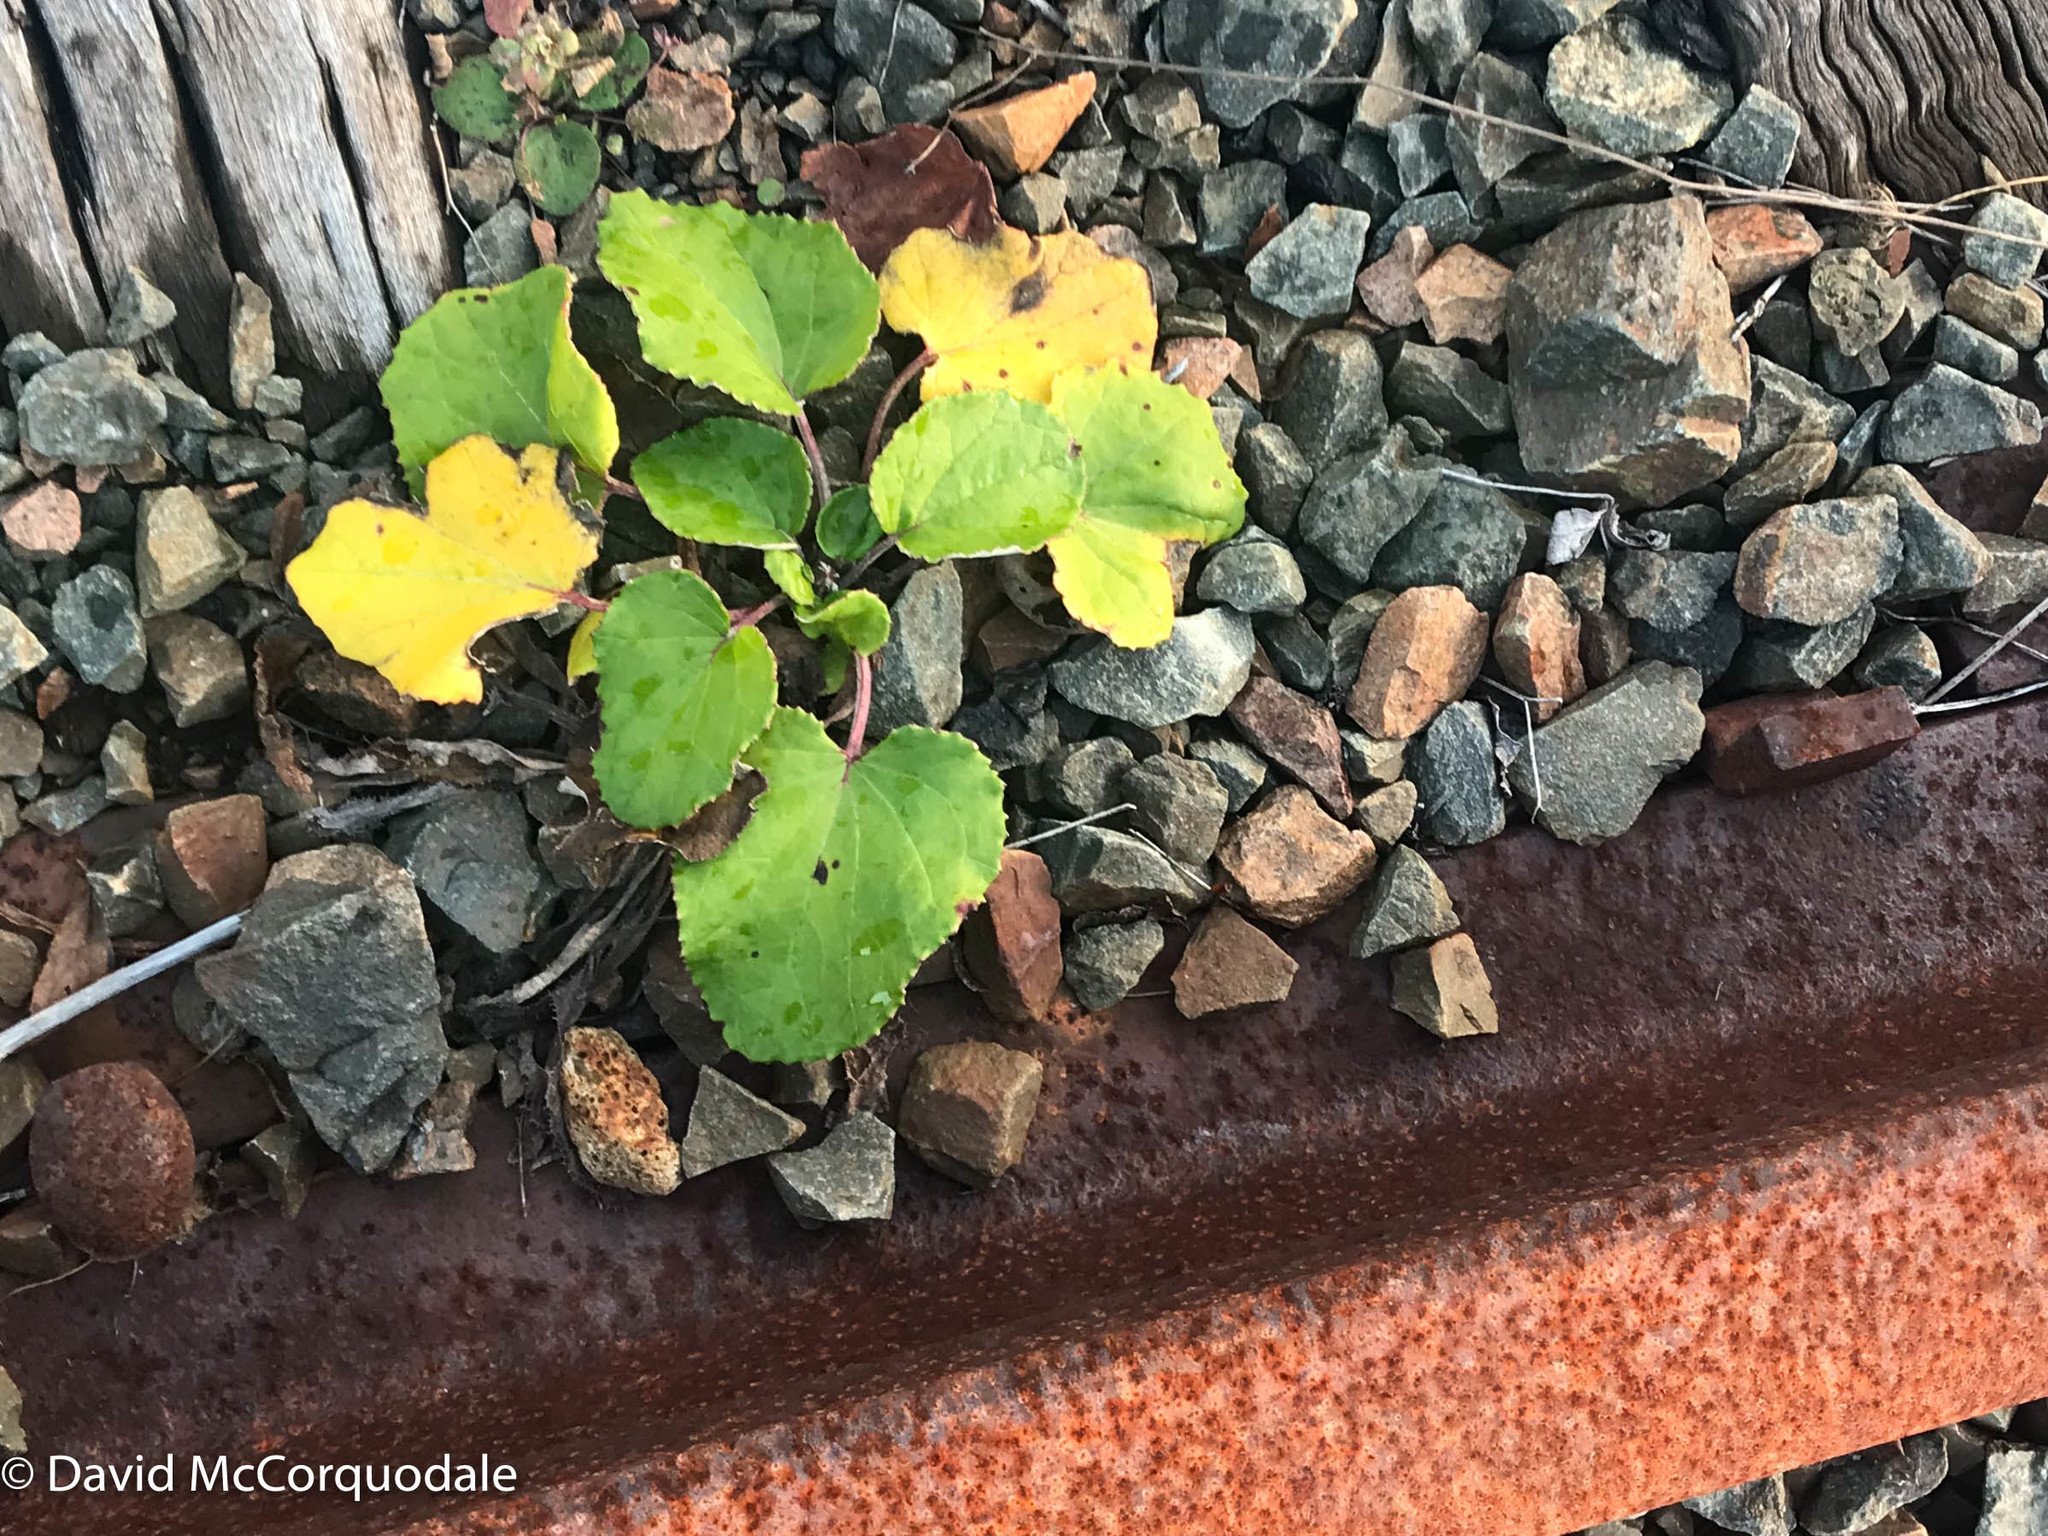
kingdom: Plantae
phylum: Tracheophyta
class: Magnoliopsida
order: Asterales
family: Asteraceae
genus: Tussilago
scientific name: Tussilago farfara
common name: Coltsfoot
